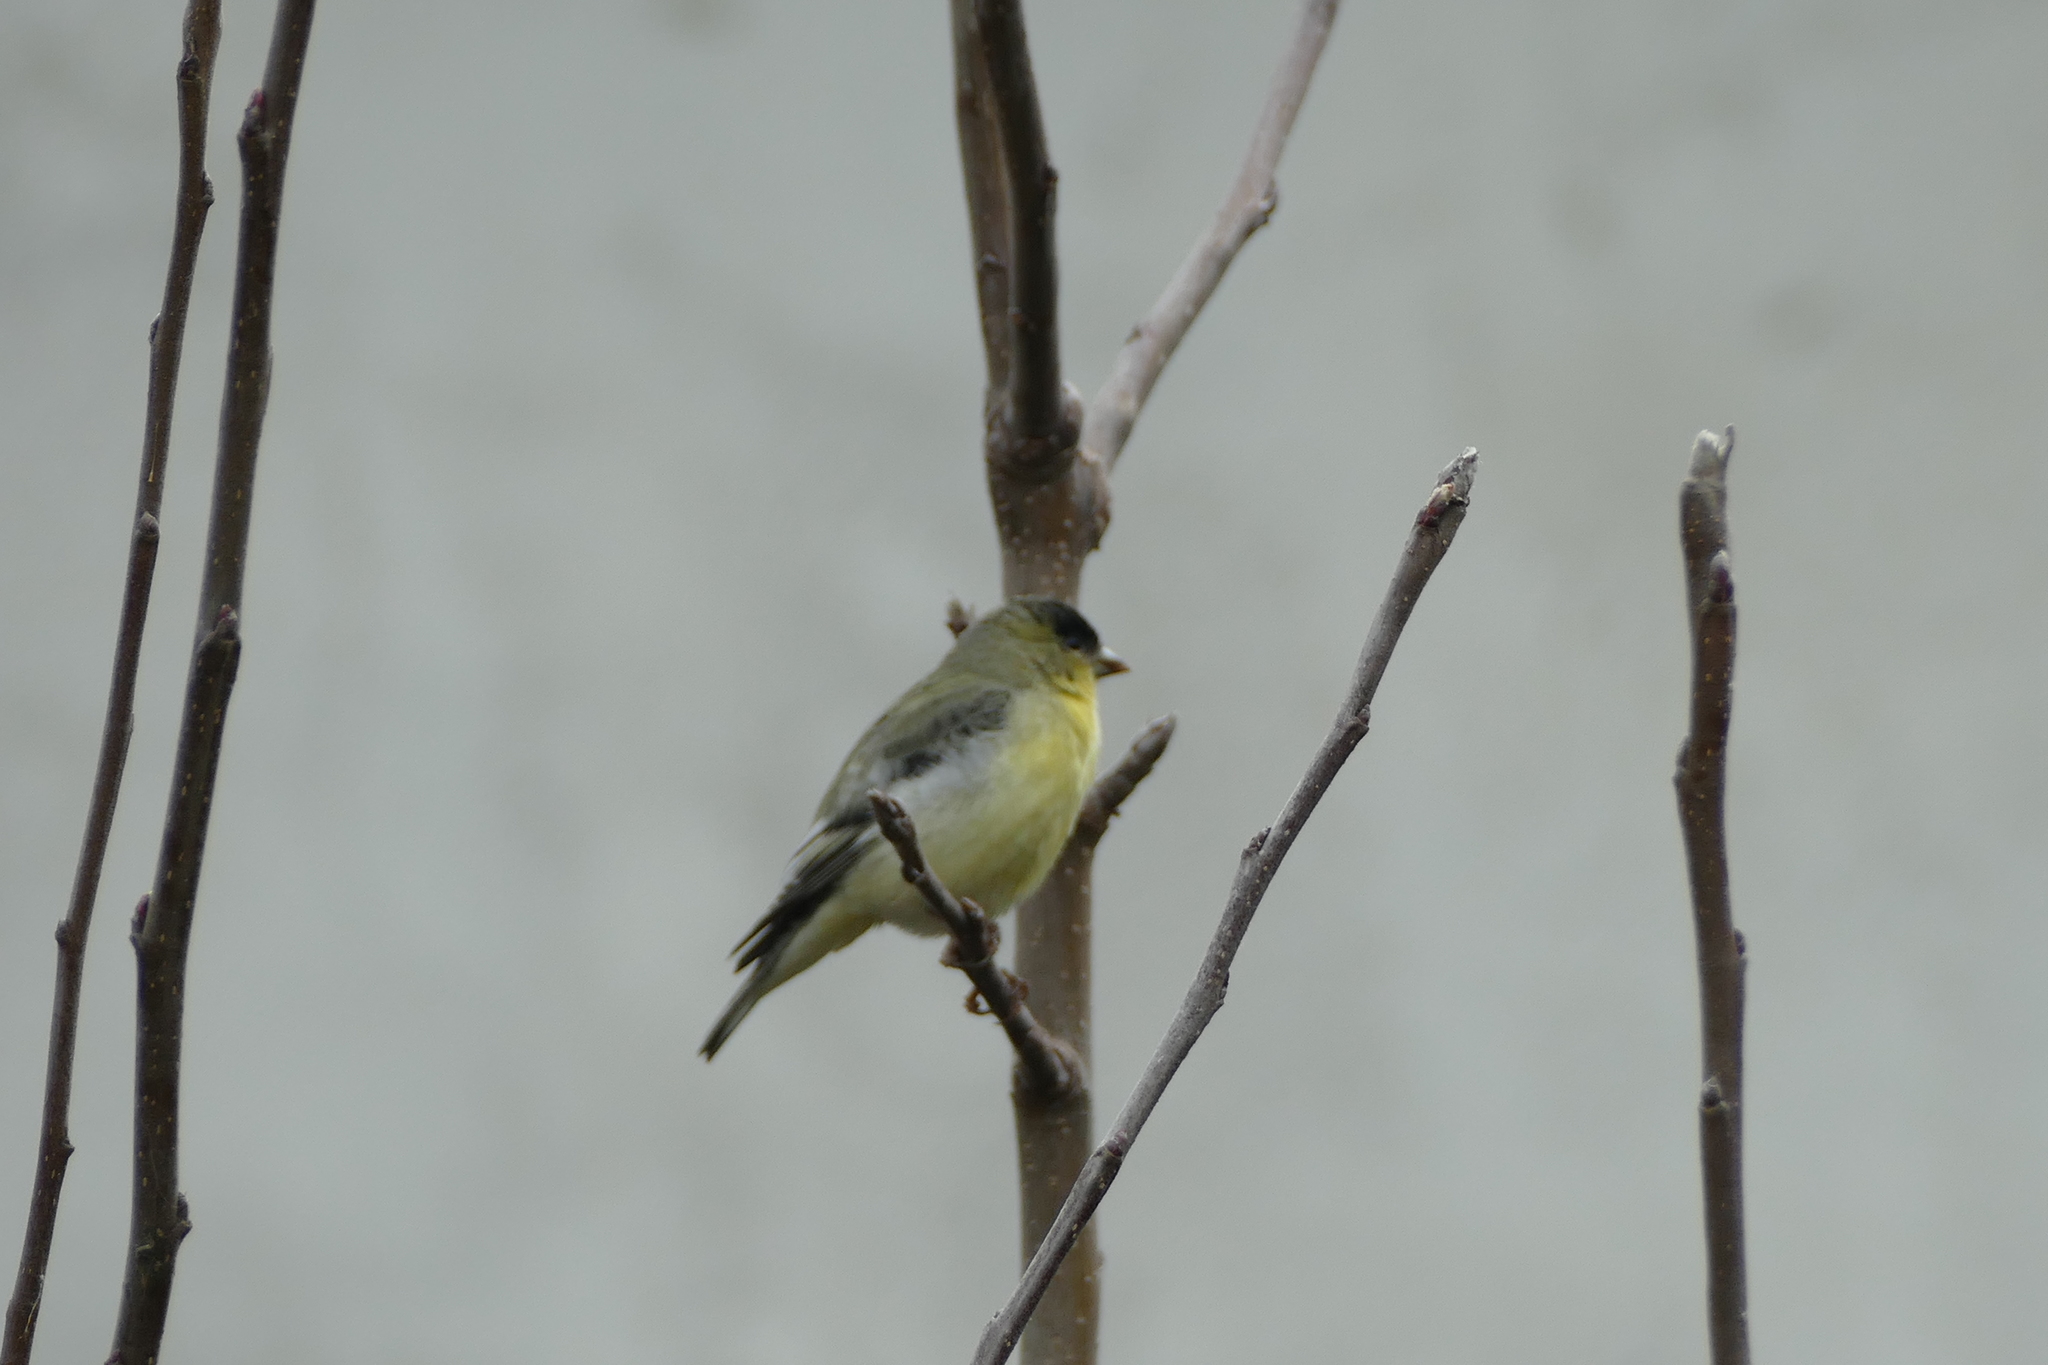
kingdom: Animalia
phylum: Chordata
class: Aves
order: Passeriformes
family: Fringillidae
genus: Spinus
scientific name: Spinus psaltria
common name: Lesser goldfinch
